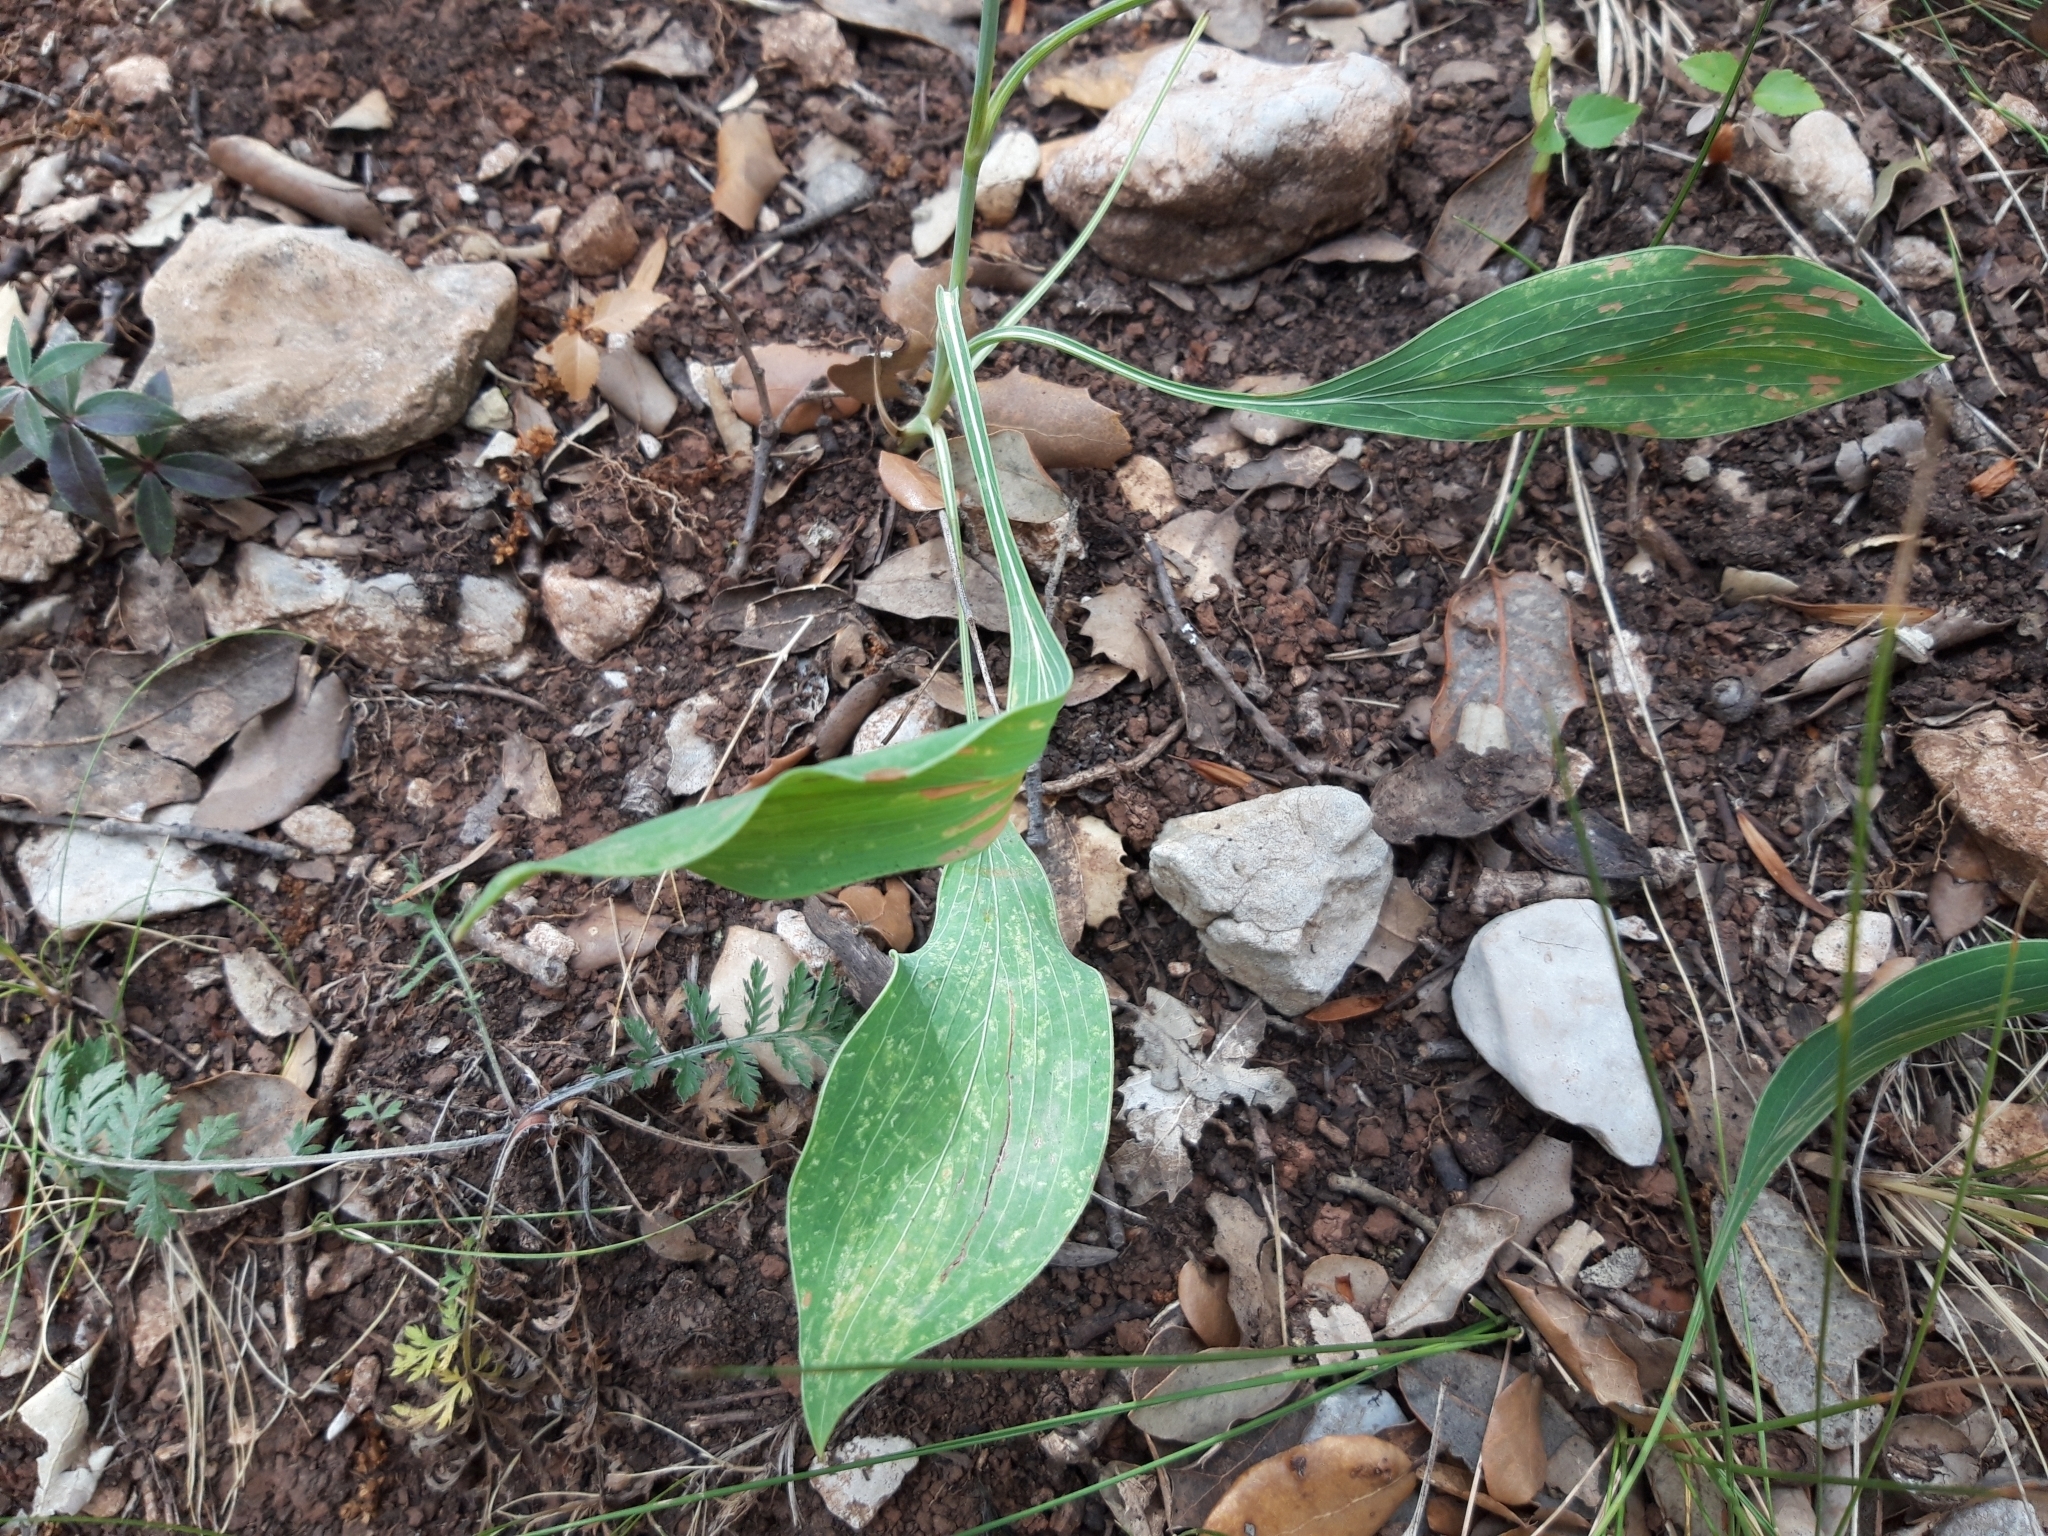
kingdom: Plantae
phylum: Tracheophyta
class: Magnoliopsida
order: Apiales
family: Apiaceae
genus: Bupleurum
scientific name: Bupleurum rigidum
